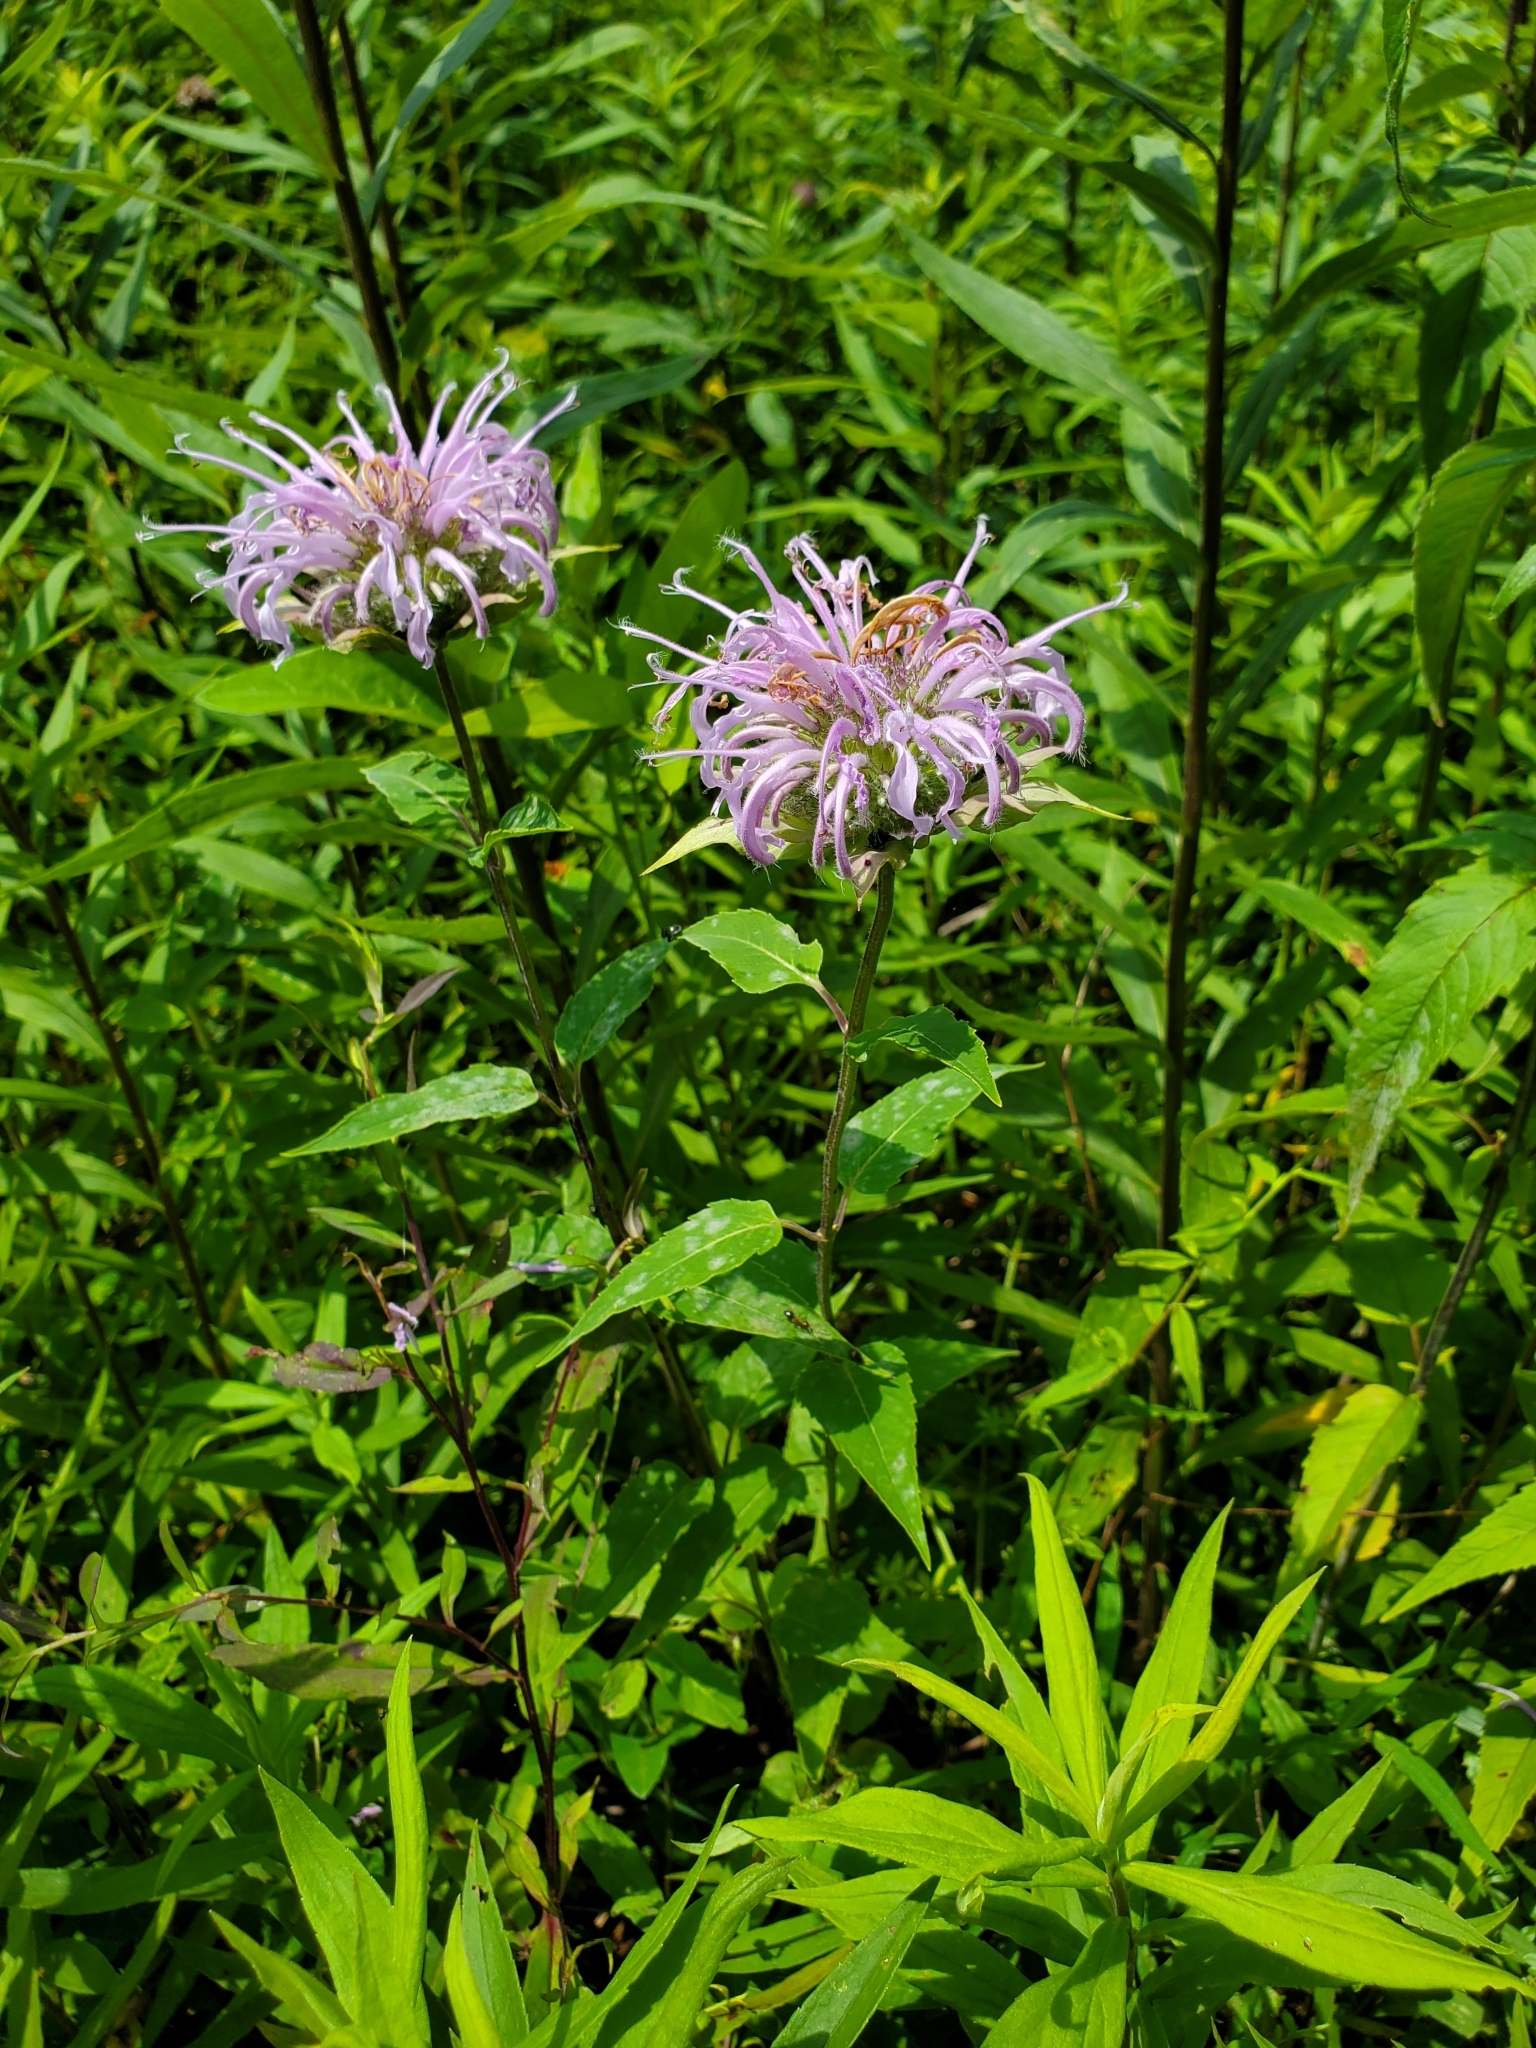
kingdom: Plantae
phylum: Tracheophyta
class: Magnoliopsida
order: Lamiales
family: Lamiaceae
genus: Monarda
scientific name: Monarda fistulosa
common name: Purple beebalm
